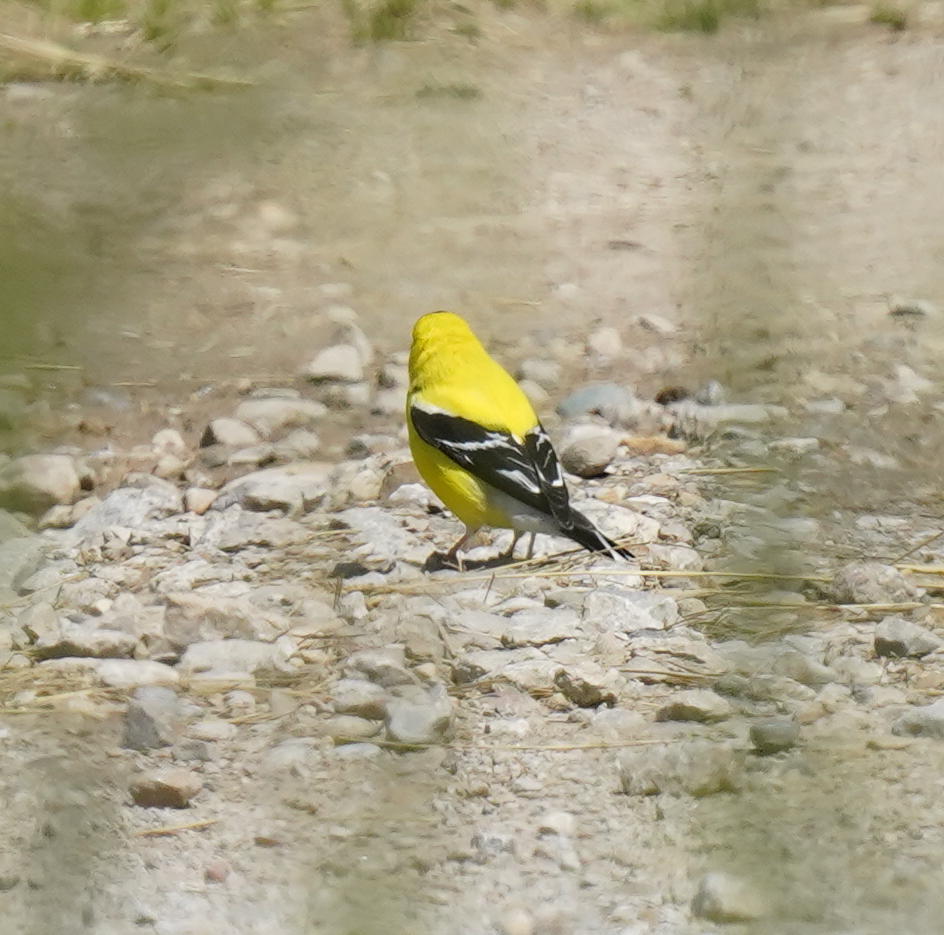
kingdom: Animalia
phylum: Chordata
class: Aves
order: Passeriformes
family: Fringillidae
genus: Spinus
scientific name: Spinus tristis
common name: American goldfinch
